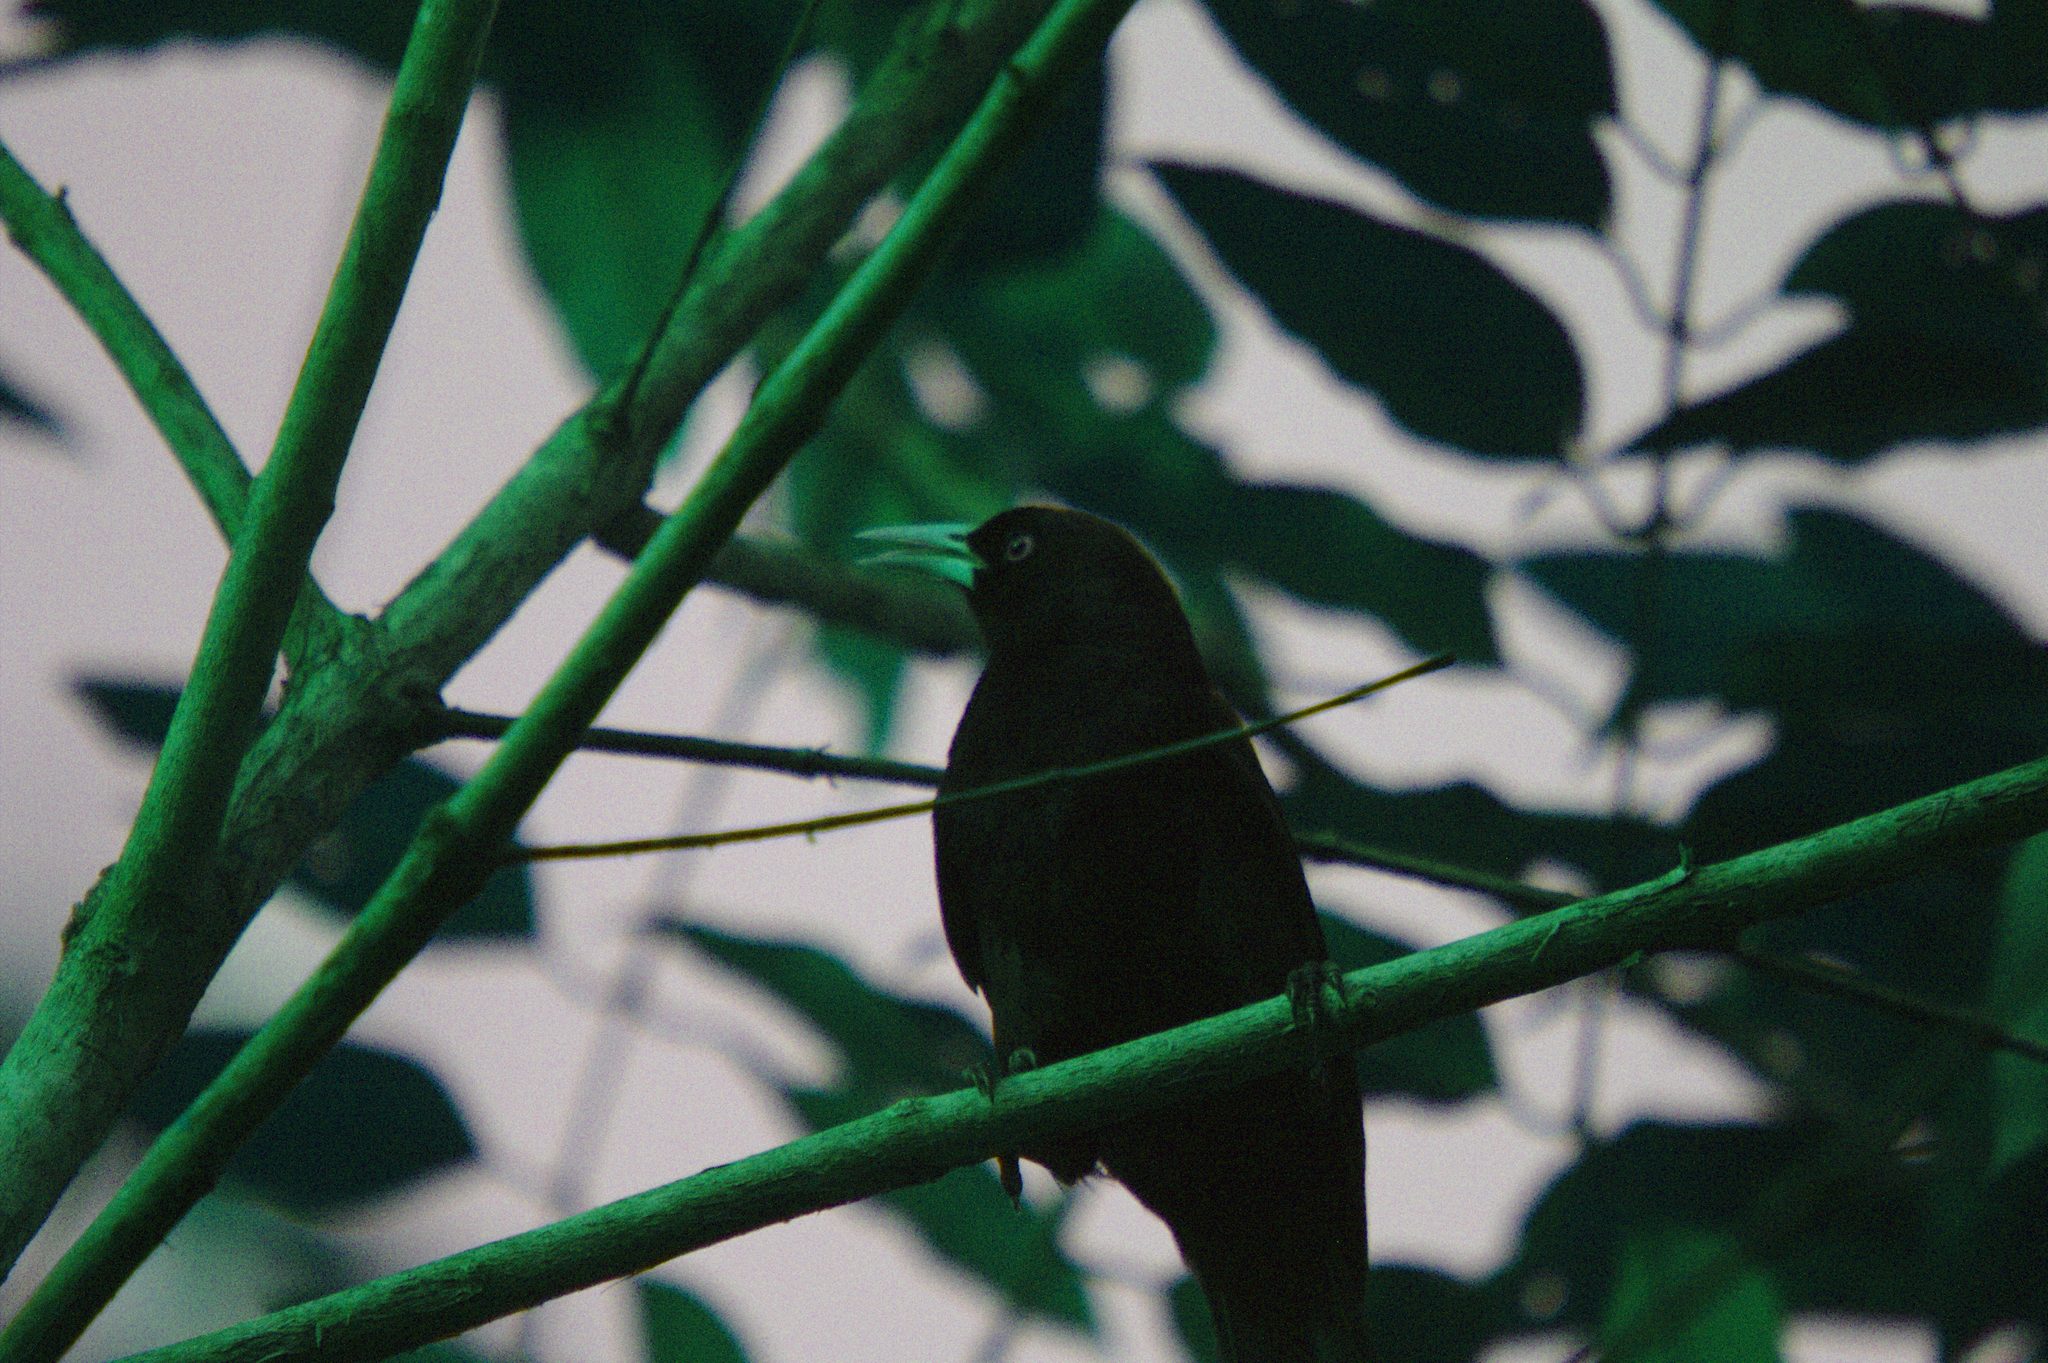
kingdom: Animalia
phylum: Chordata
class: Aves
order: Passeriformes
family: Icteridae
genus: Cacicus
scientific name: Cacicus uropygialis
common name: Scarlet-rumped cacique
